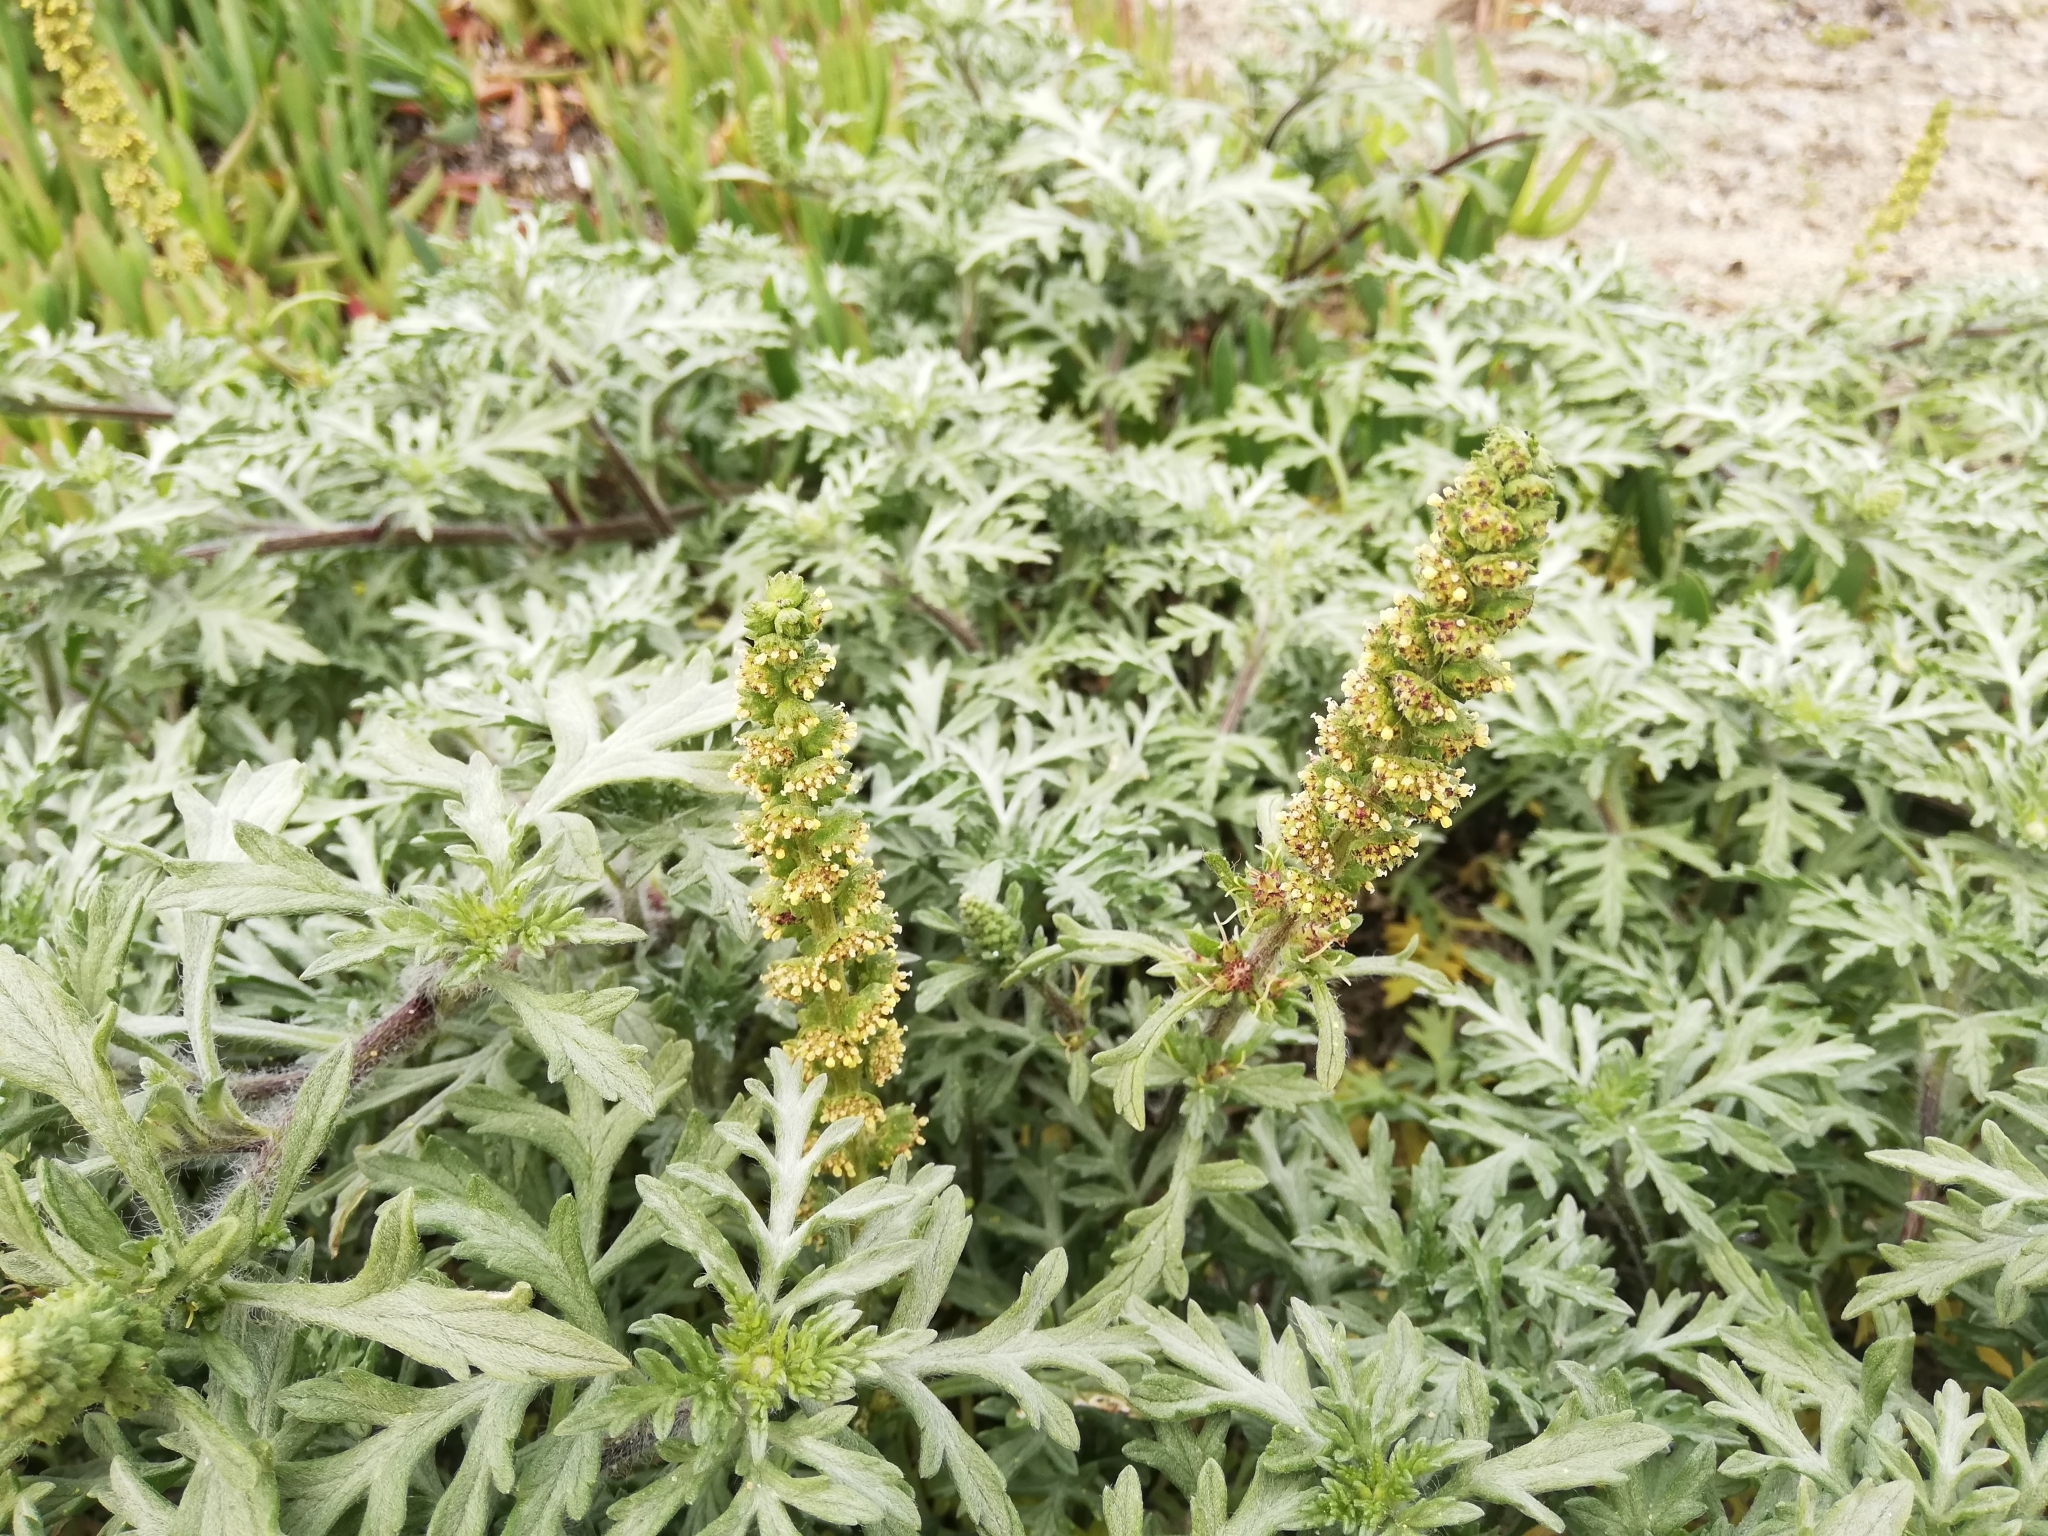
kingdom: Plantae
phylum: Tracheophyta
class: Magnoliopsida
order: Asterales
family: Asteraceae
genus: Ambrosia
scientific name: Ambrosia chamissonis
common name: Beachbur
